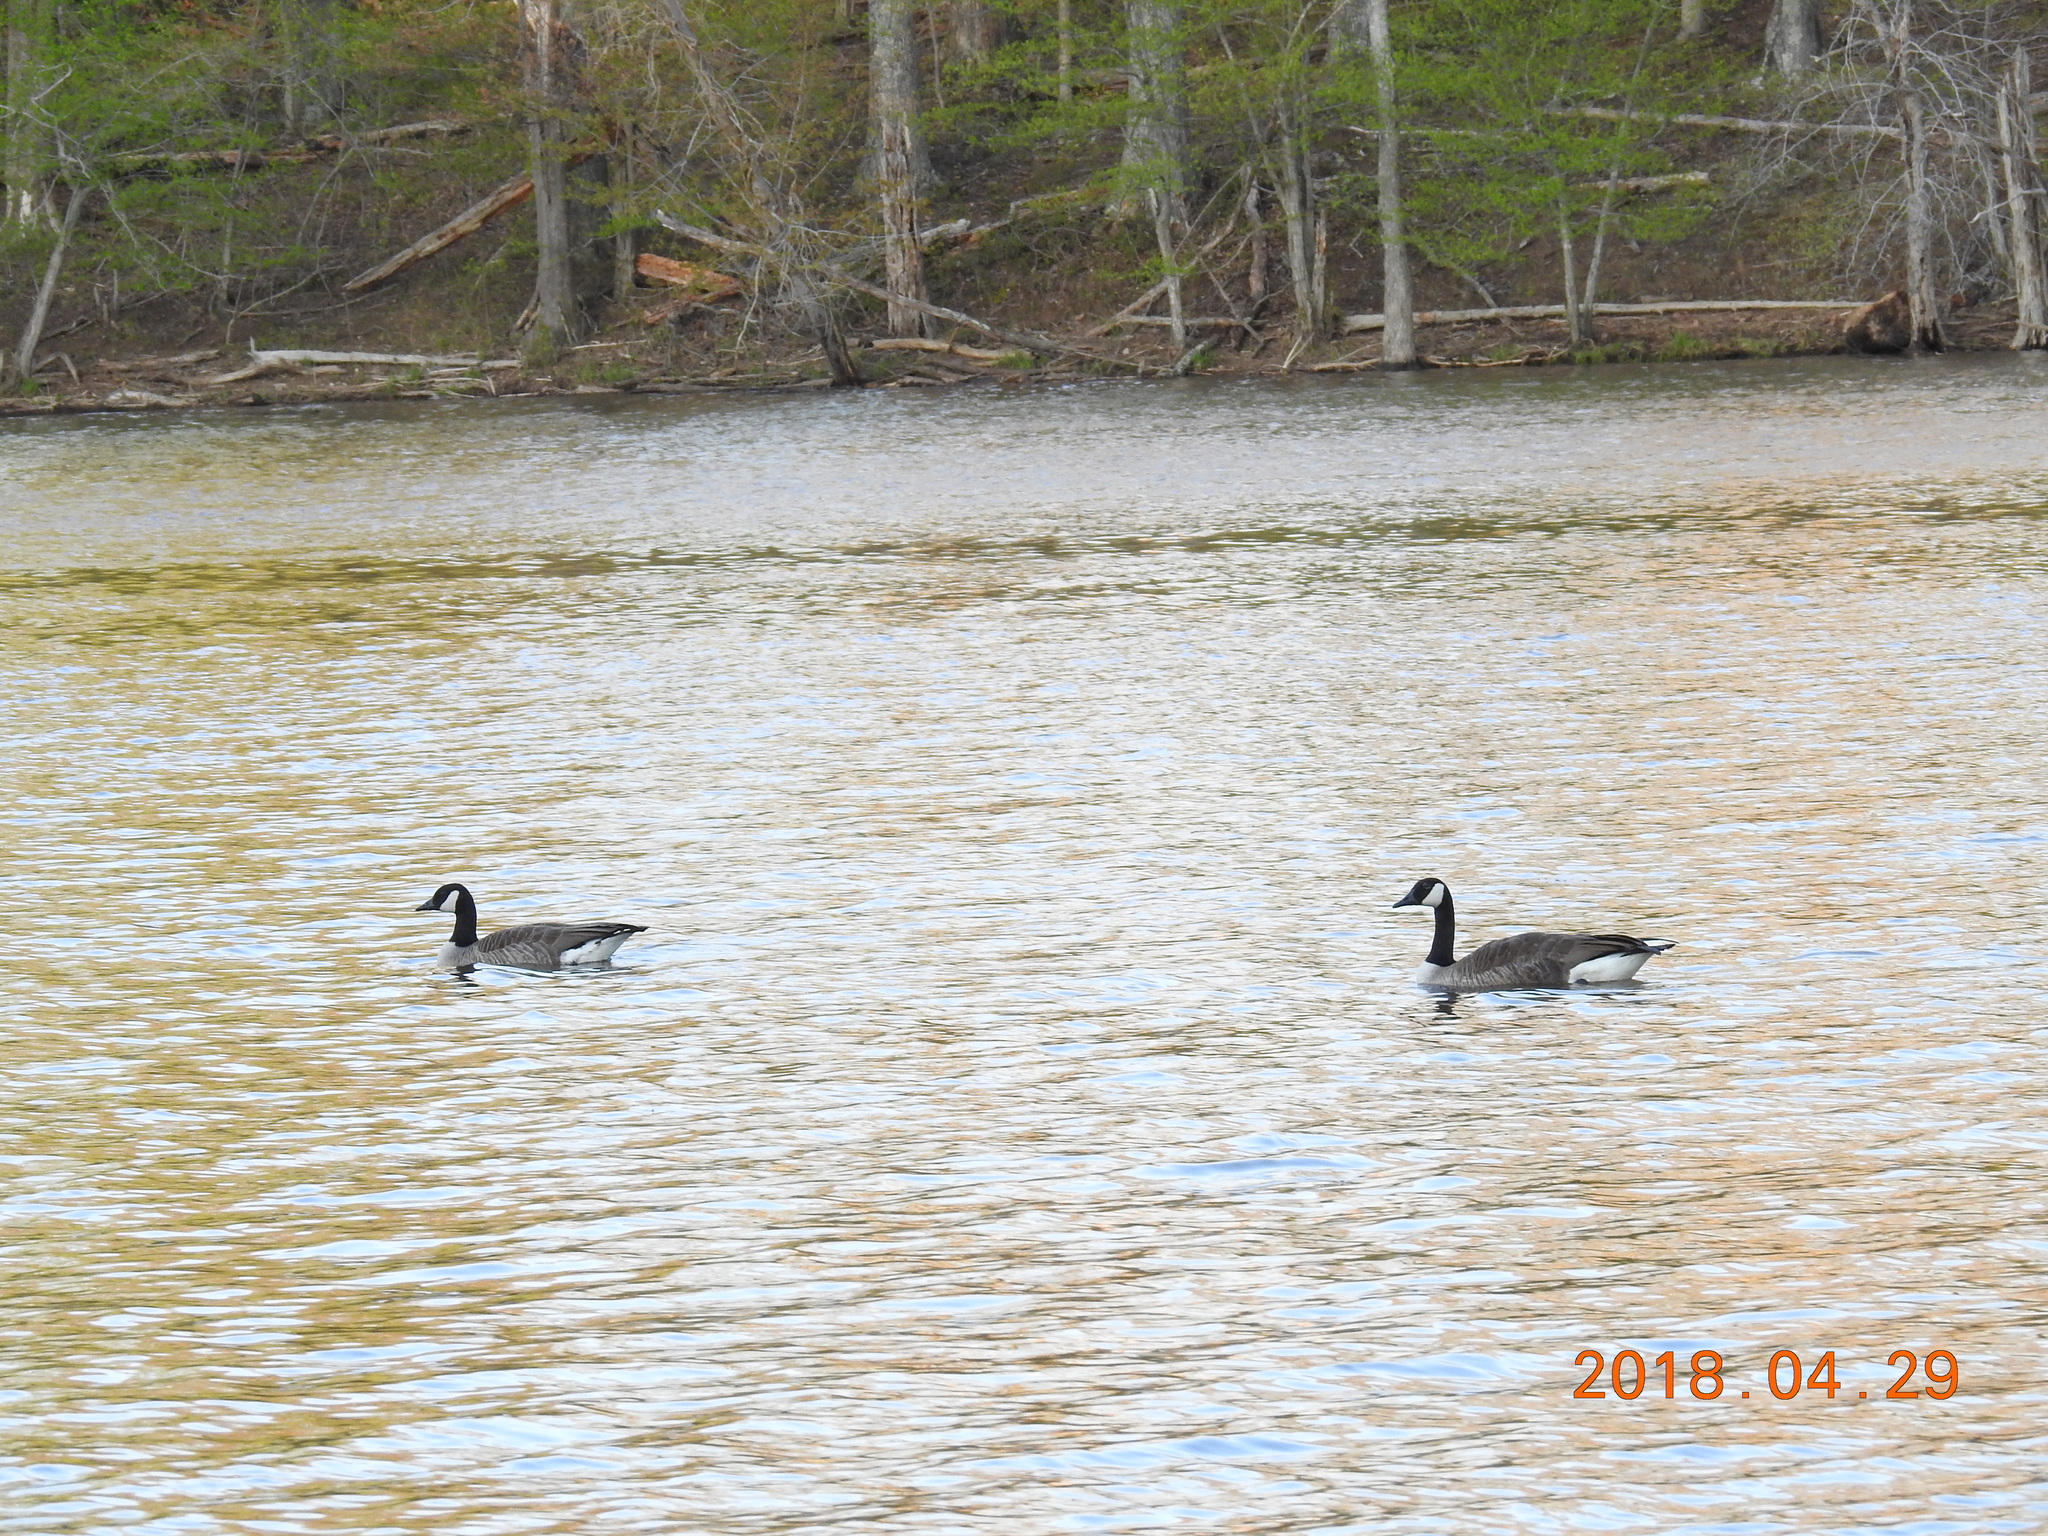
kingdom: Animalia
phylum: Chordata
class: Aves
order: Anseriformes
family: Anatidae
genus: Branta
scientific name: Branta canadensis
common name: Canada goose
